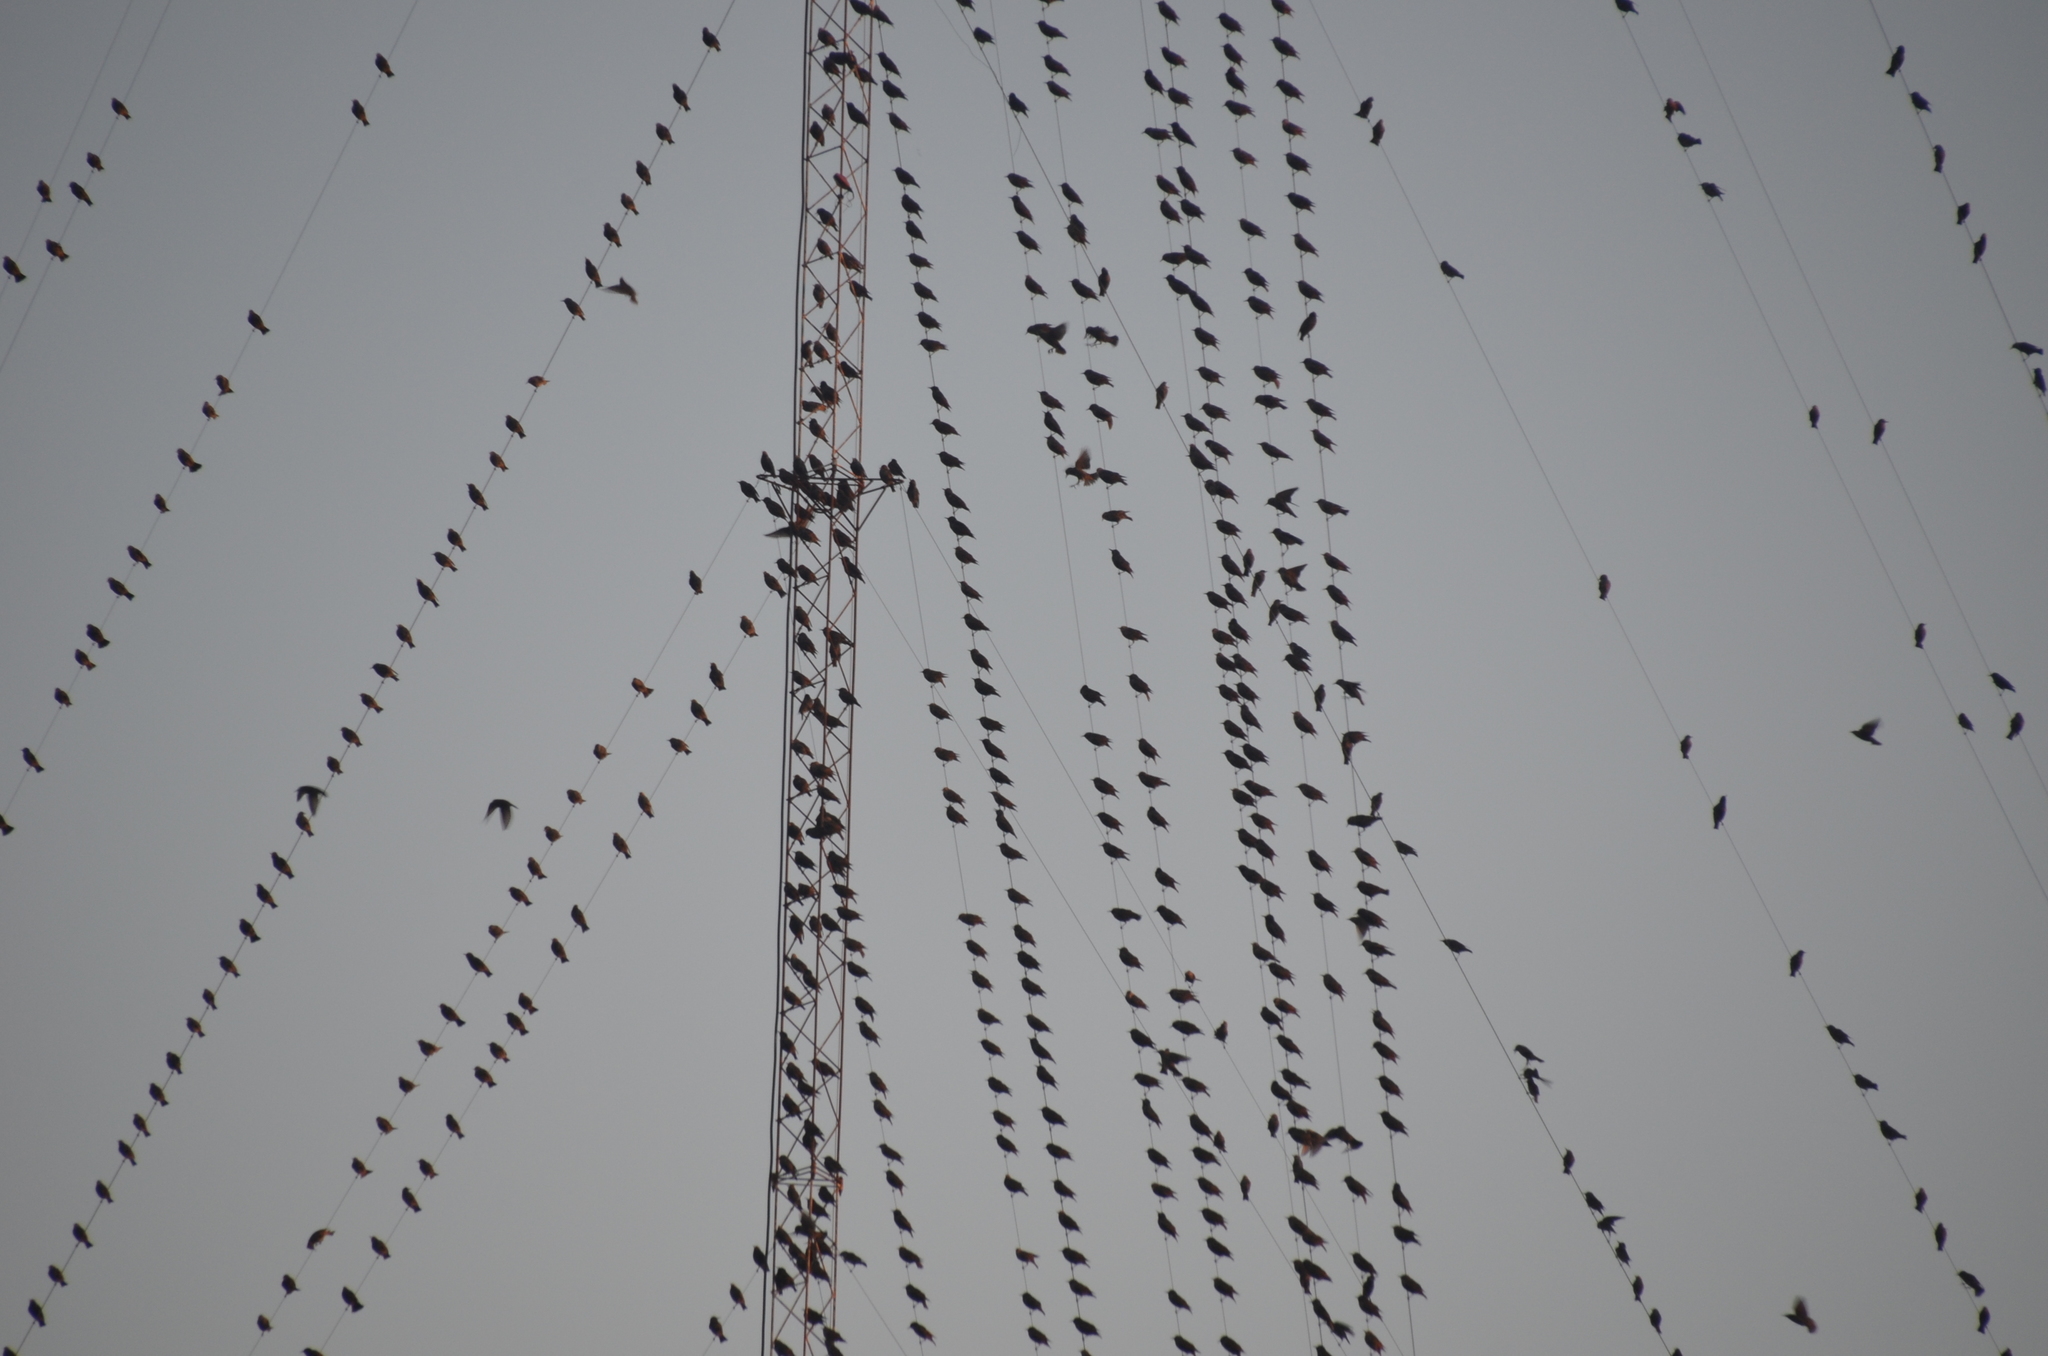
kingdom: Animalia
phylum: Chordata
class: Aves
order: Passeriformes
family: Sturnidae
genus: Sturnus
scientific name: Sturnus vulgaris
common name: Common starling
